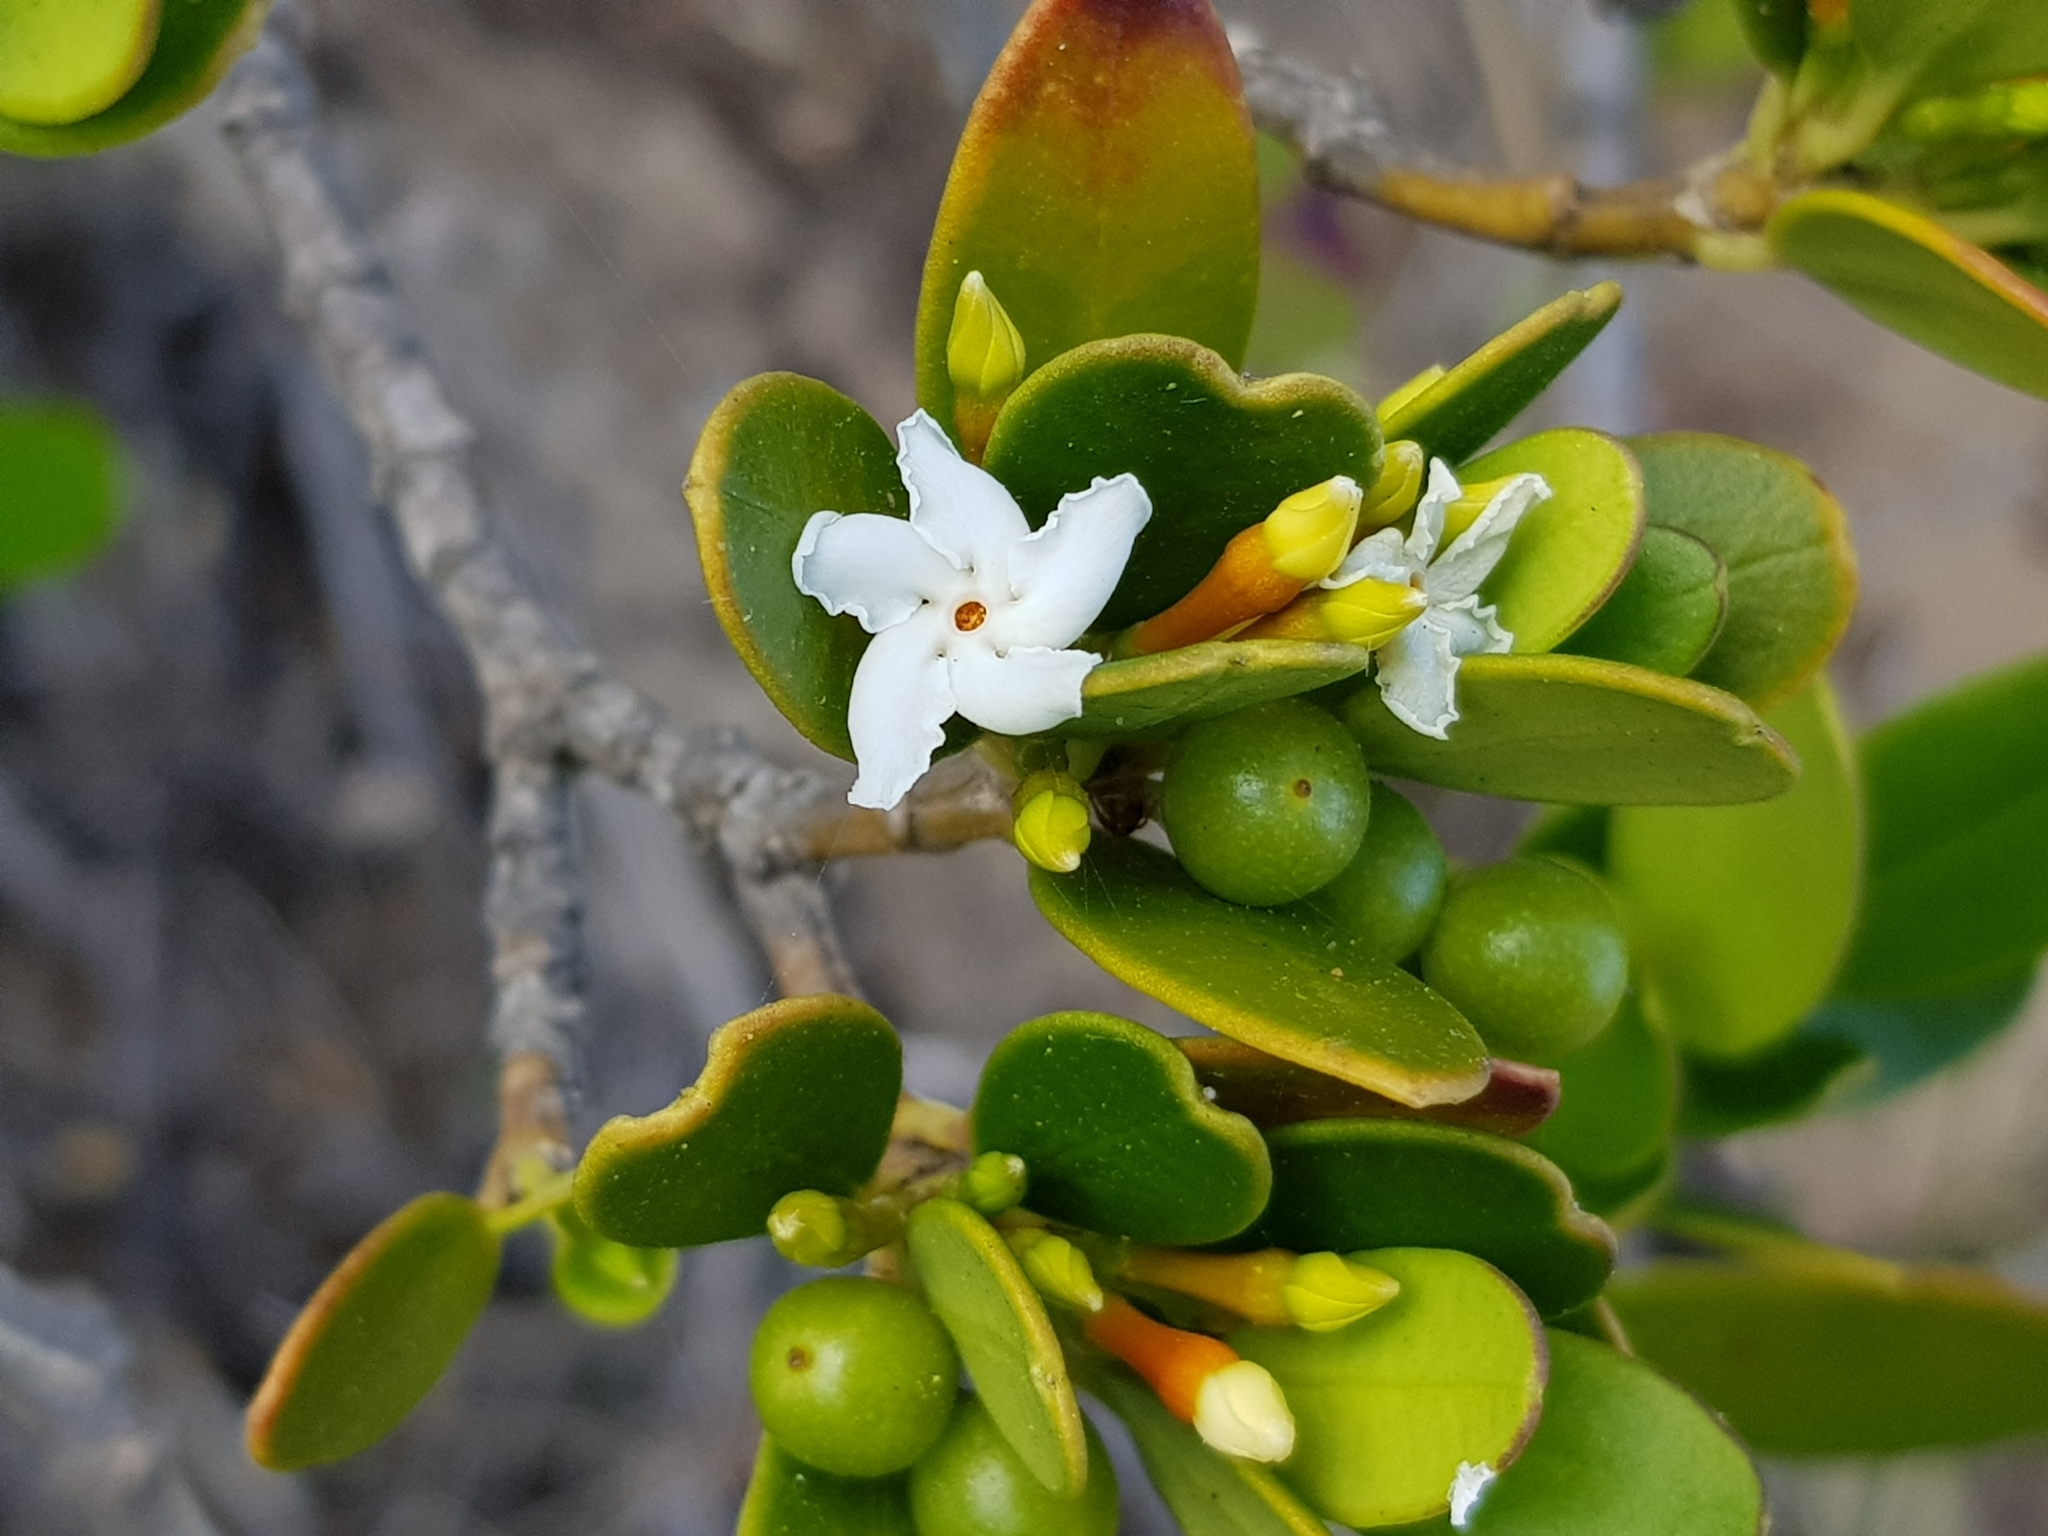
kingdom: Plantae
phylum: Tracheophyta
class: Magnoliopsida
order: Gentianales
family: Apocynaceae
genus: Alyxia
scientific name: Alyxia buxifolia
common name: Dysentery-bush
